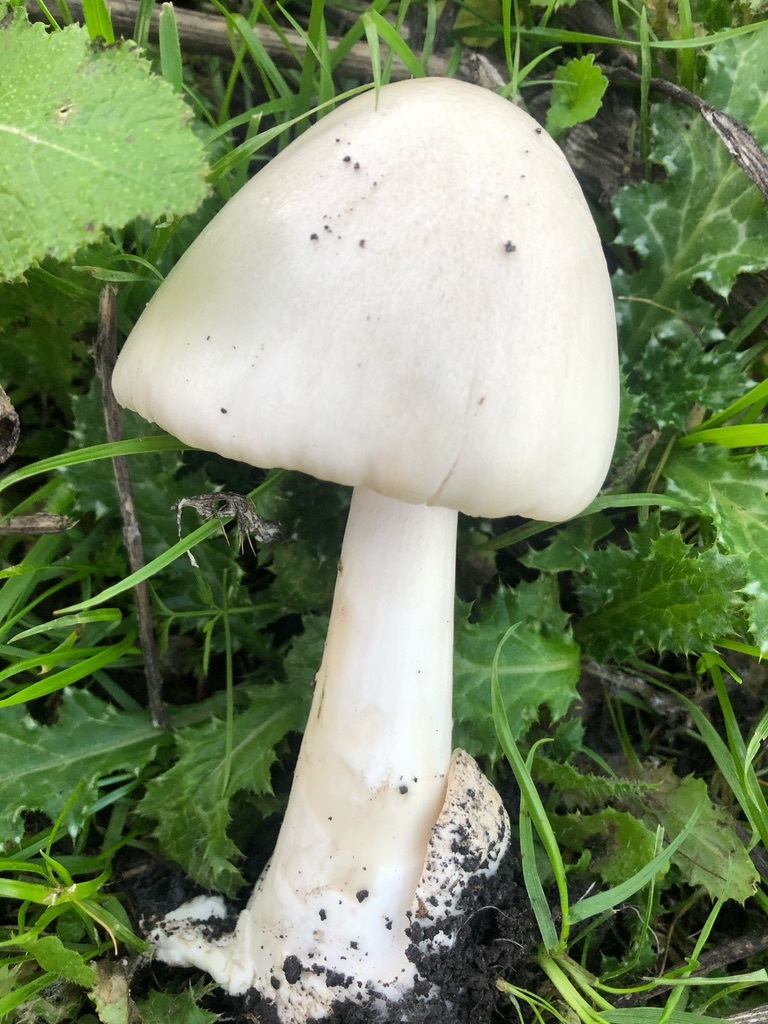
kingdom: Fungi
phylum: Basidiomycota
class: Agaricomycetes
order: Agaricales
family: Pluteaceae
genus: Volvopluteus
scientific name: Volvopluteus gloiocephalus
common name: Stubble rosegill
